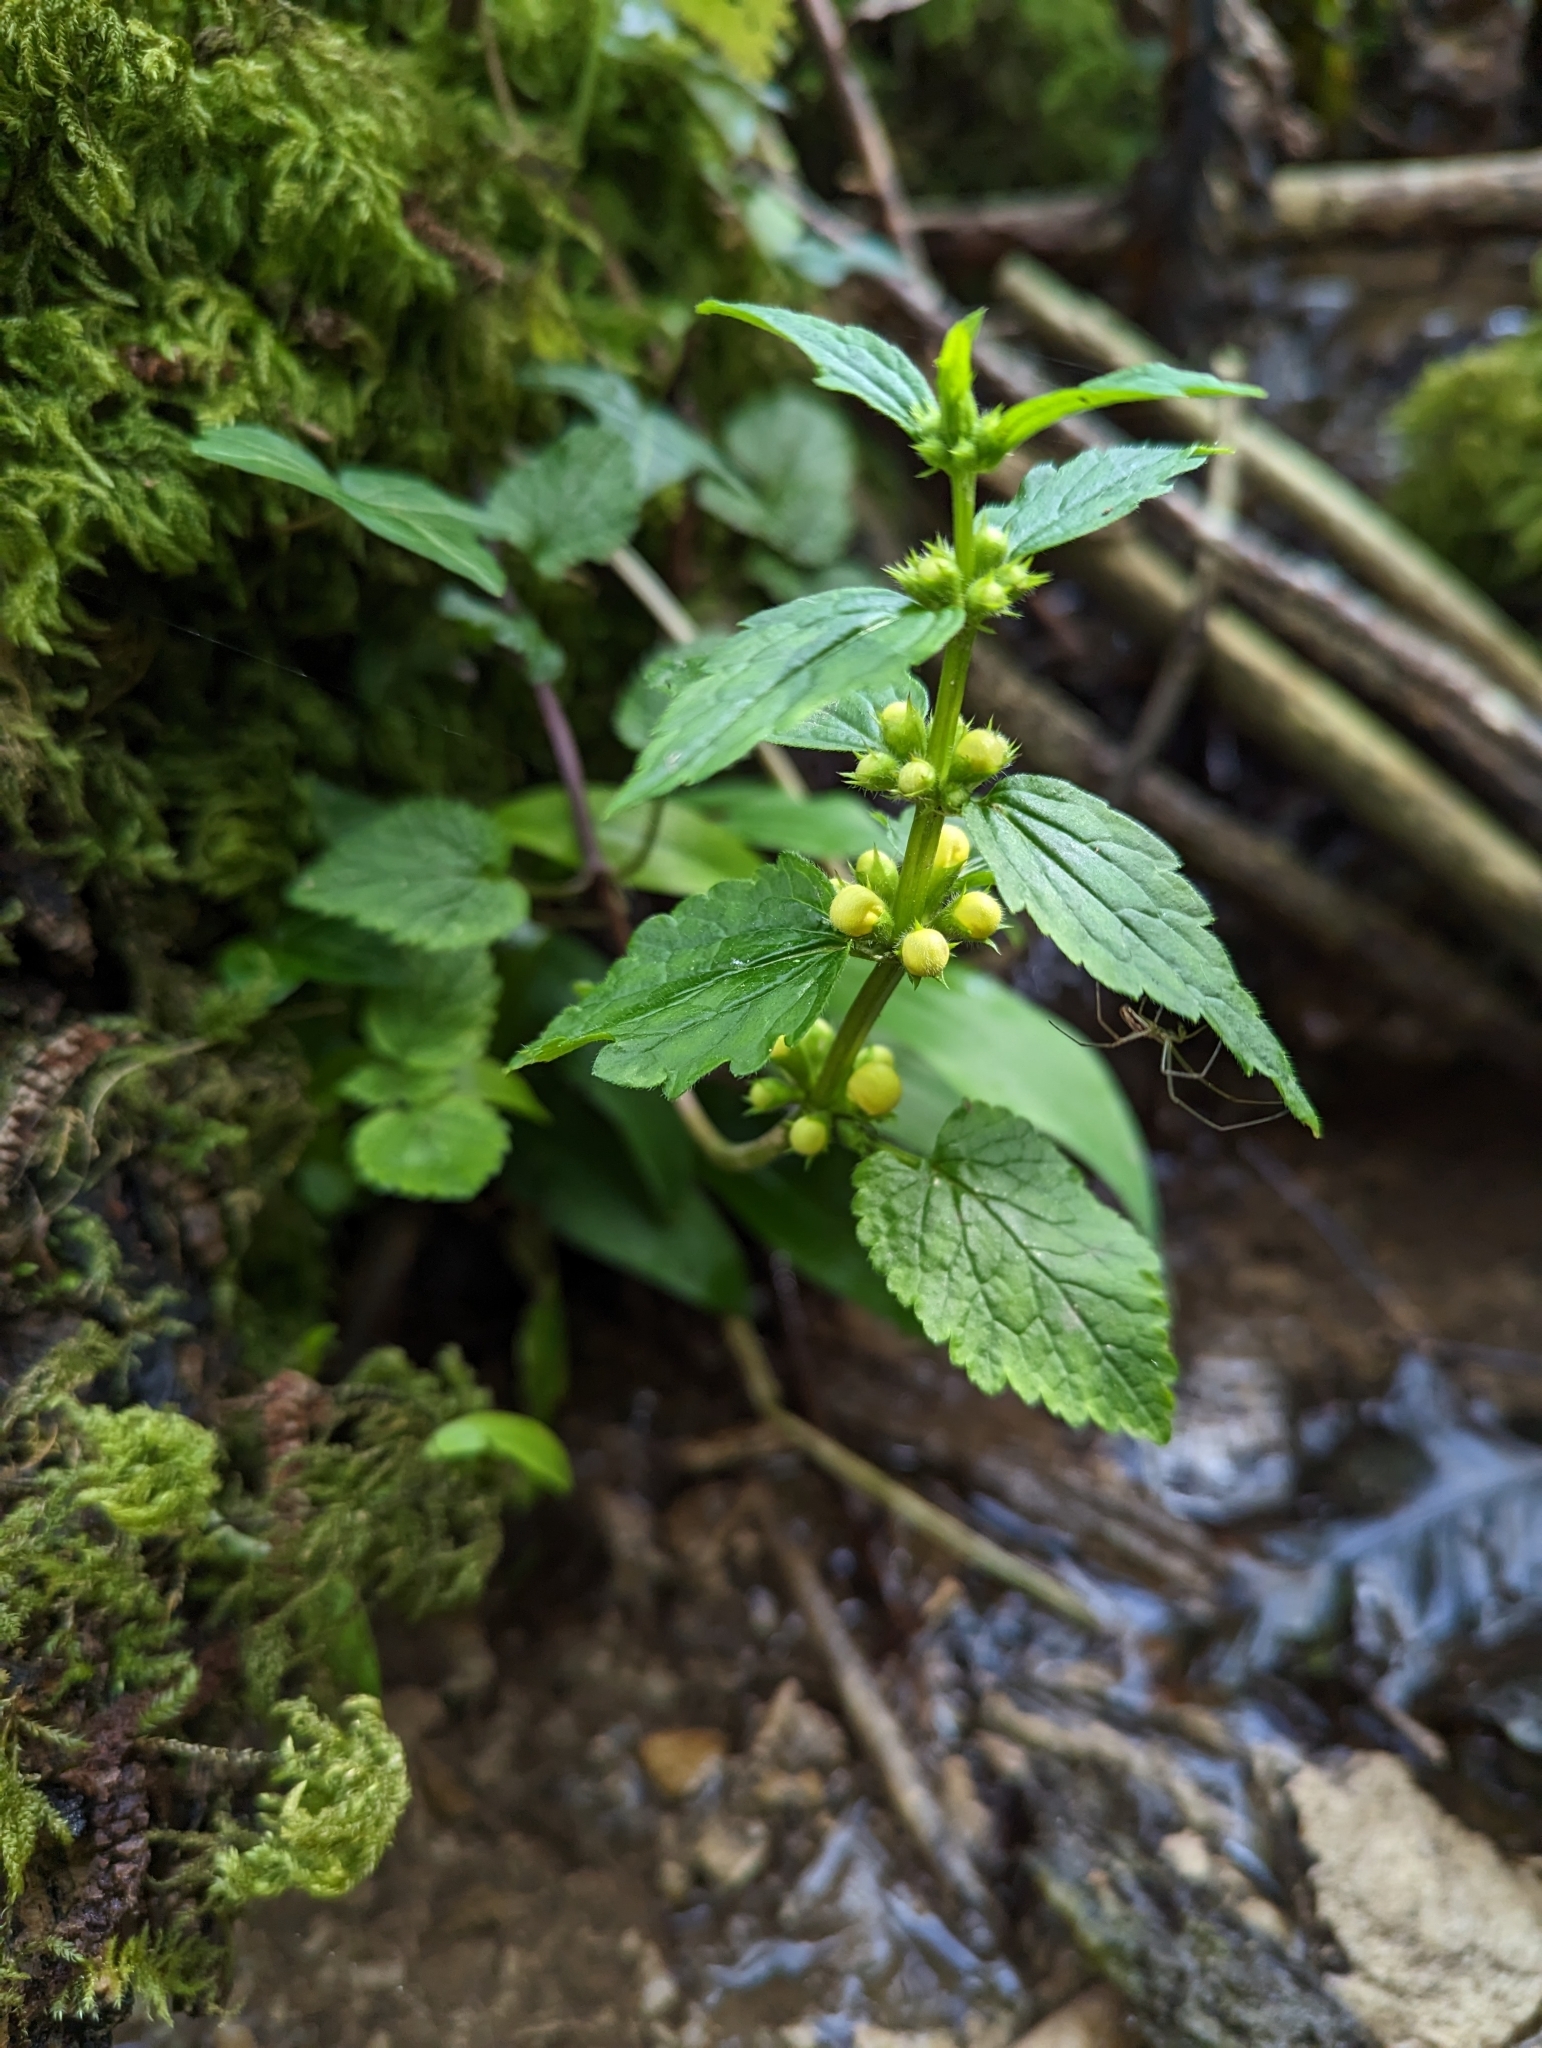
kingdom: Plantae
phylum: Tracheophyta
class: Magnoliopsida
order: Lamiales
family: Lamiaceae
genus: Lamium
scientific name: Lamium galeobdolon
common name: Yellow archangel
